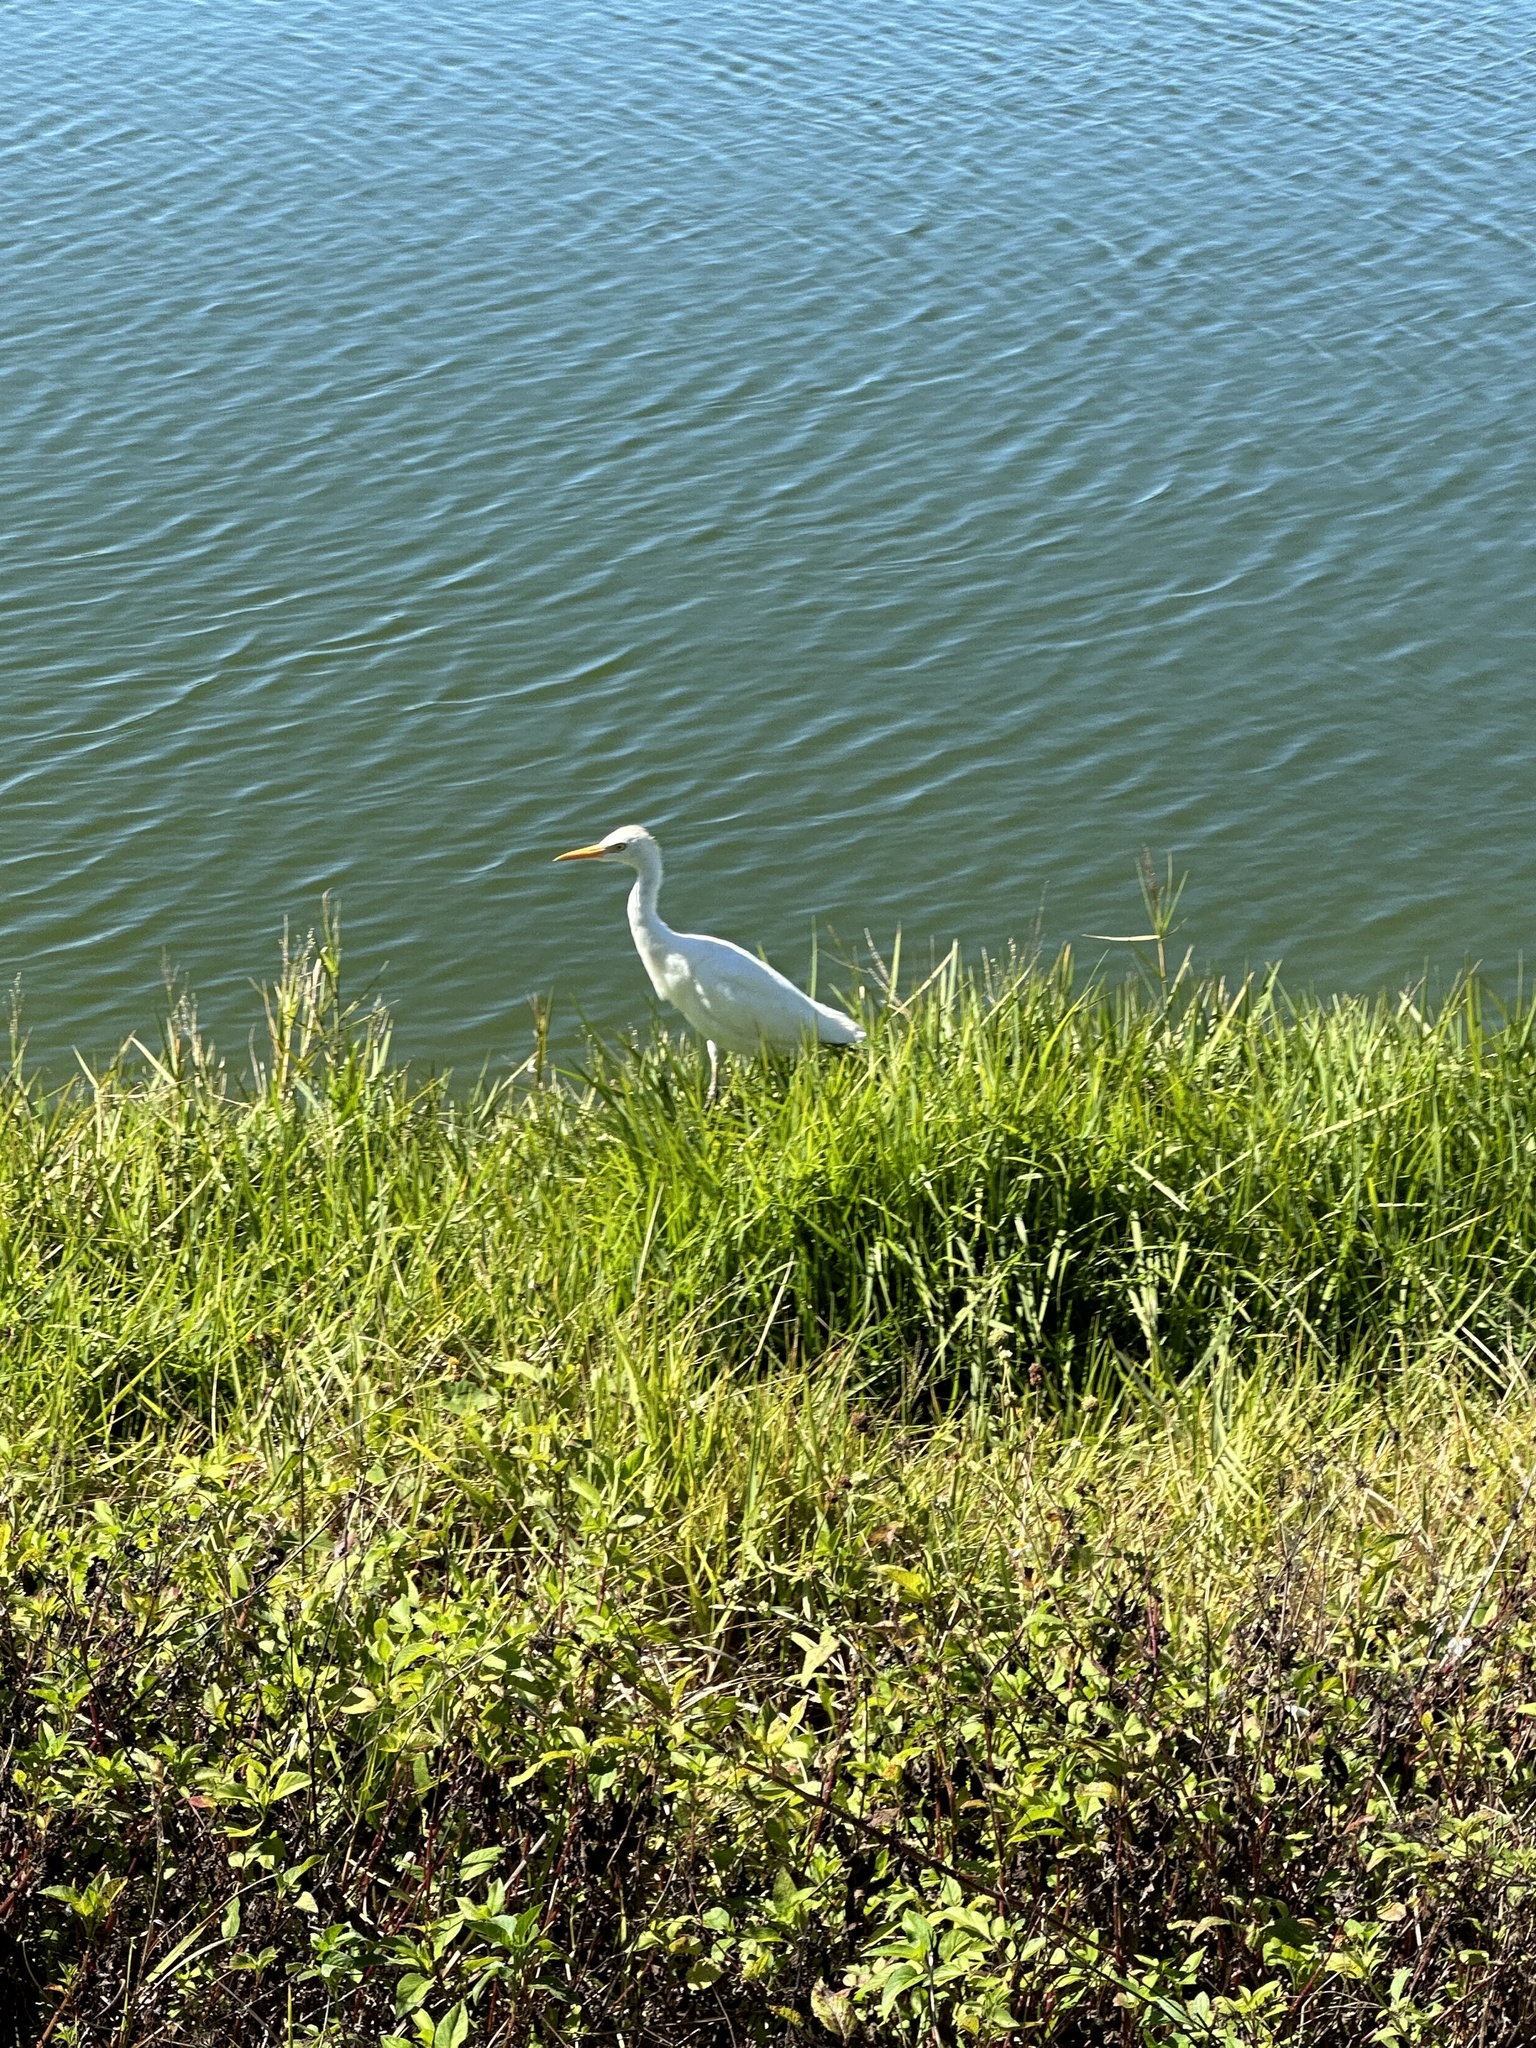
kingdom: Animalia
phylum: Chordata
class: Aves
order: Pelecaniformes
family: Ardeidae
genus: Bubulcus
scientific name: Bubulcus ibis
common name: Cattle egret
